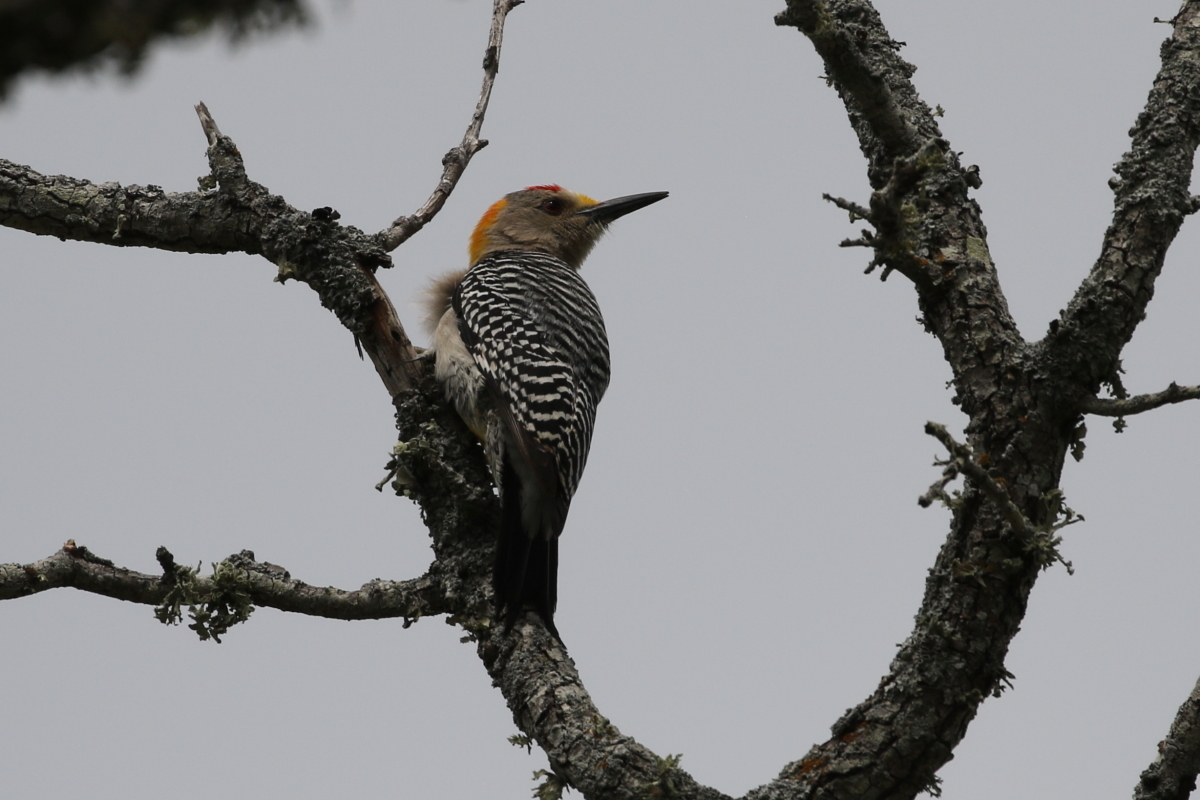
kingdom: Animalia
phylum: Chordata
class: Aves
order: Piciformes
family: Picidae
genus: Melanerpes
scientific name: Melanerpes aurifrons
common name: Golden-fronted woodpecker
